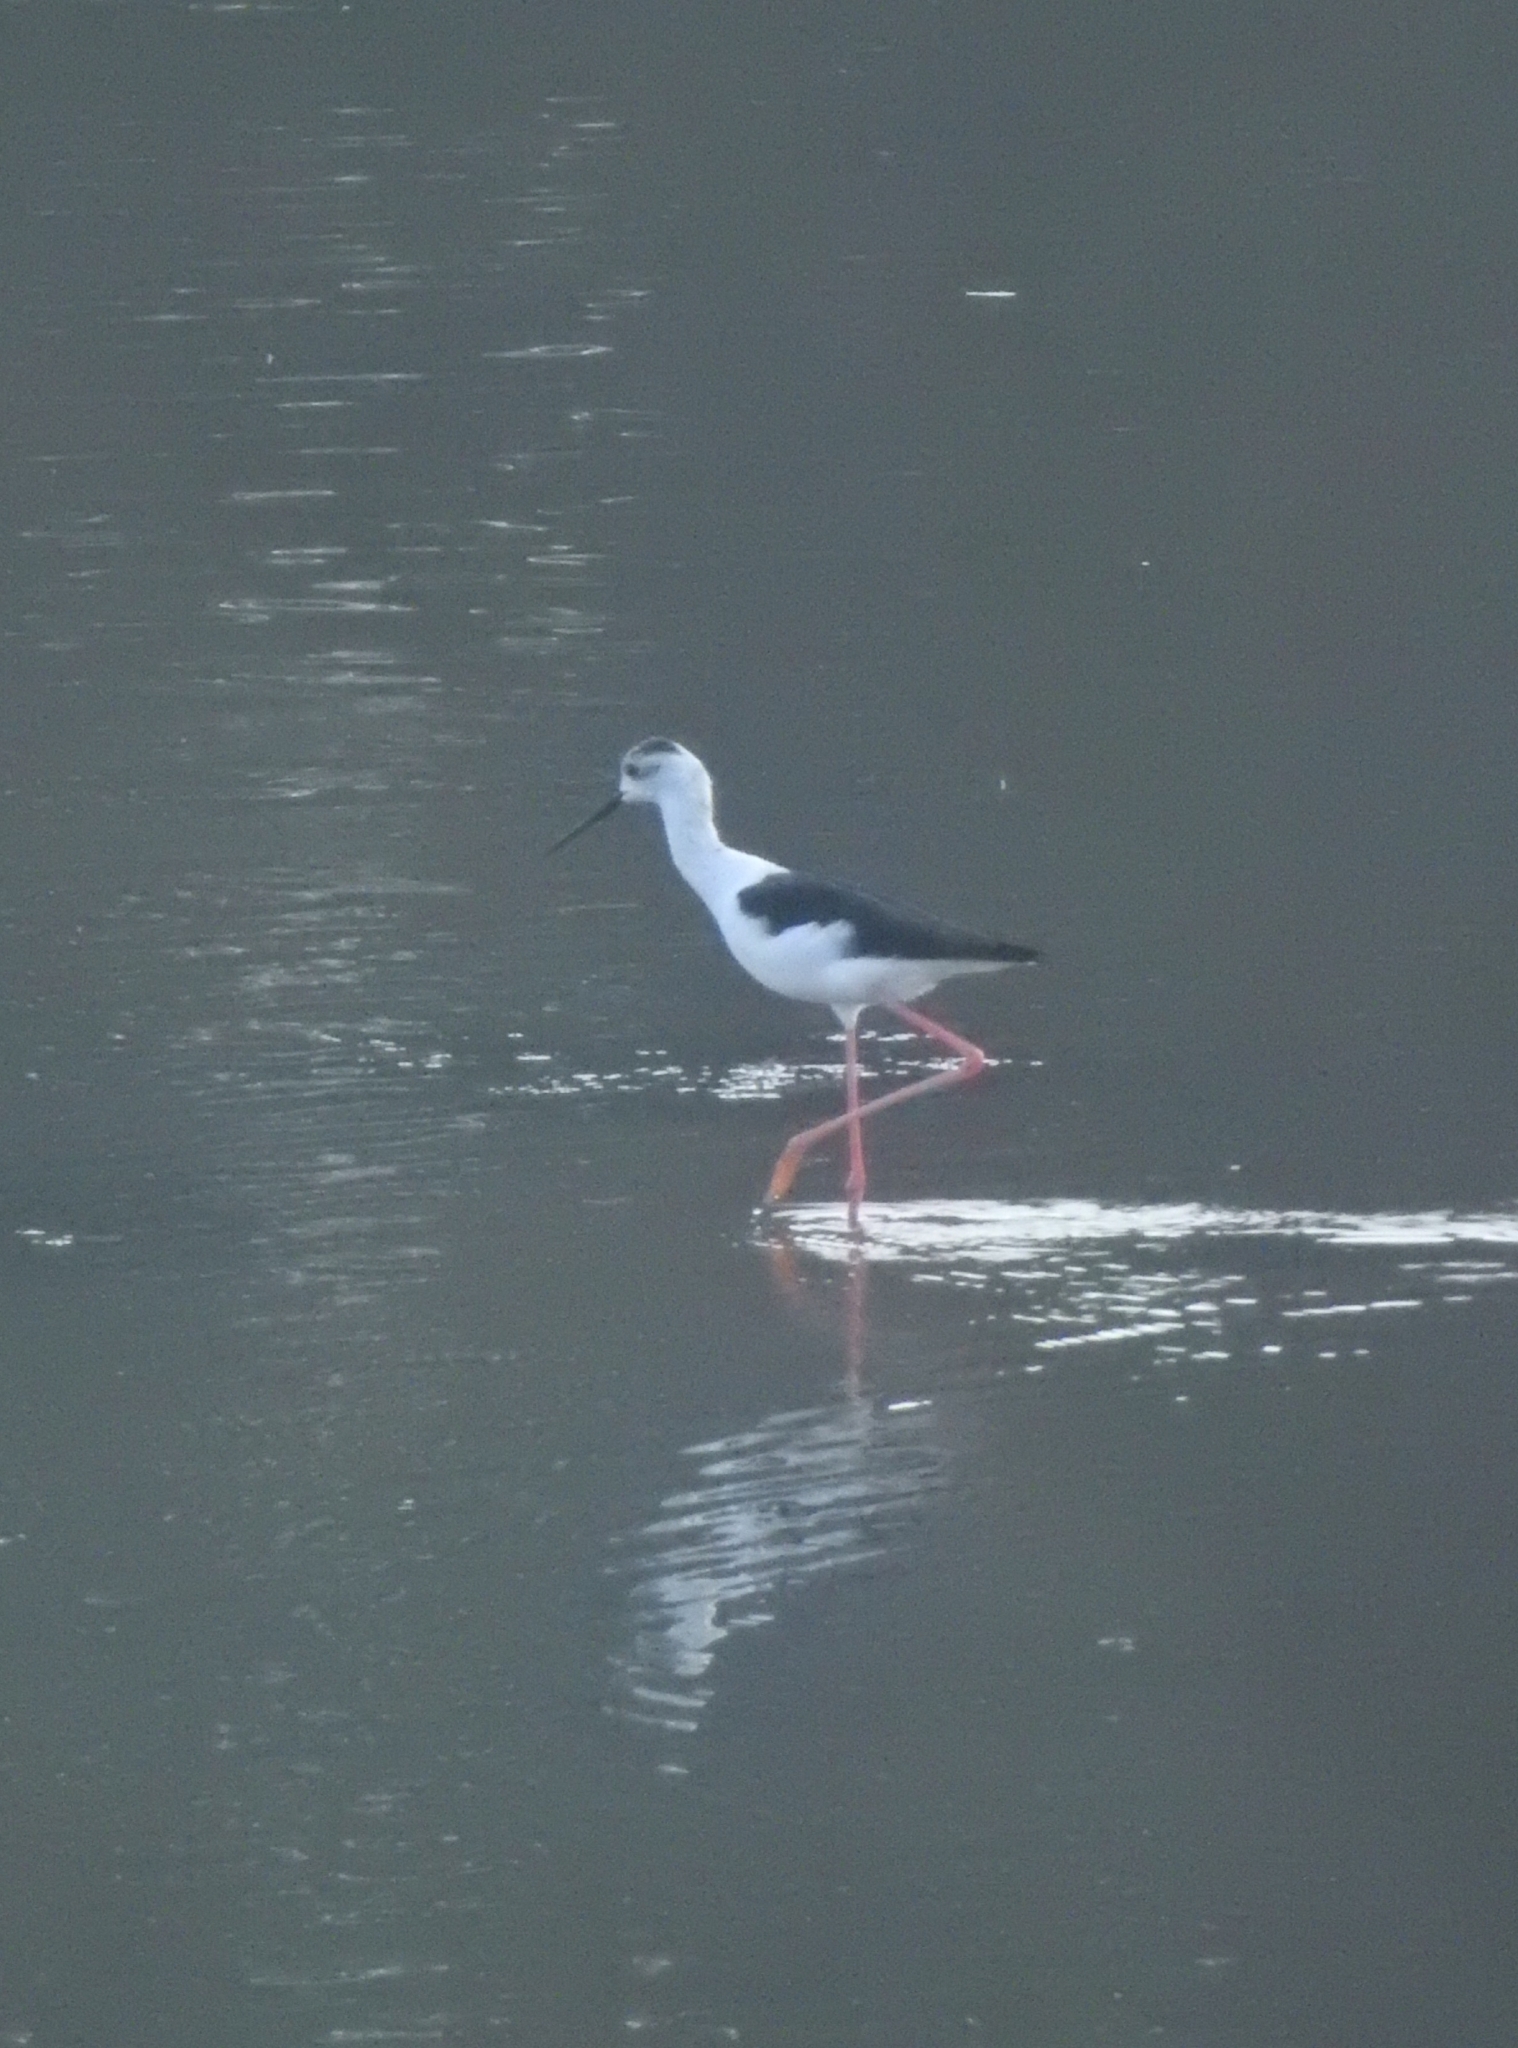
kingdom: Animalia
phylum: Chordata
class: Aves
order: Charadriiformes
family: Recurvirostridae
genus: Himantopus
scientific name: Himantopus himantopus
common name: Black-winged stilt
